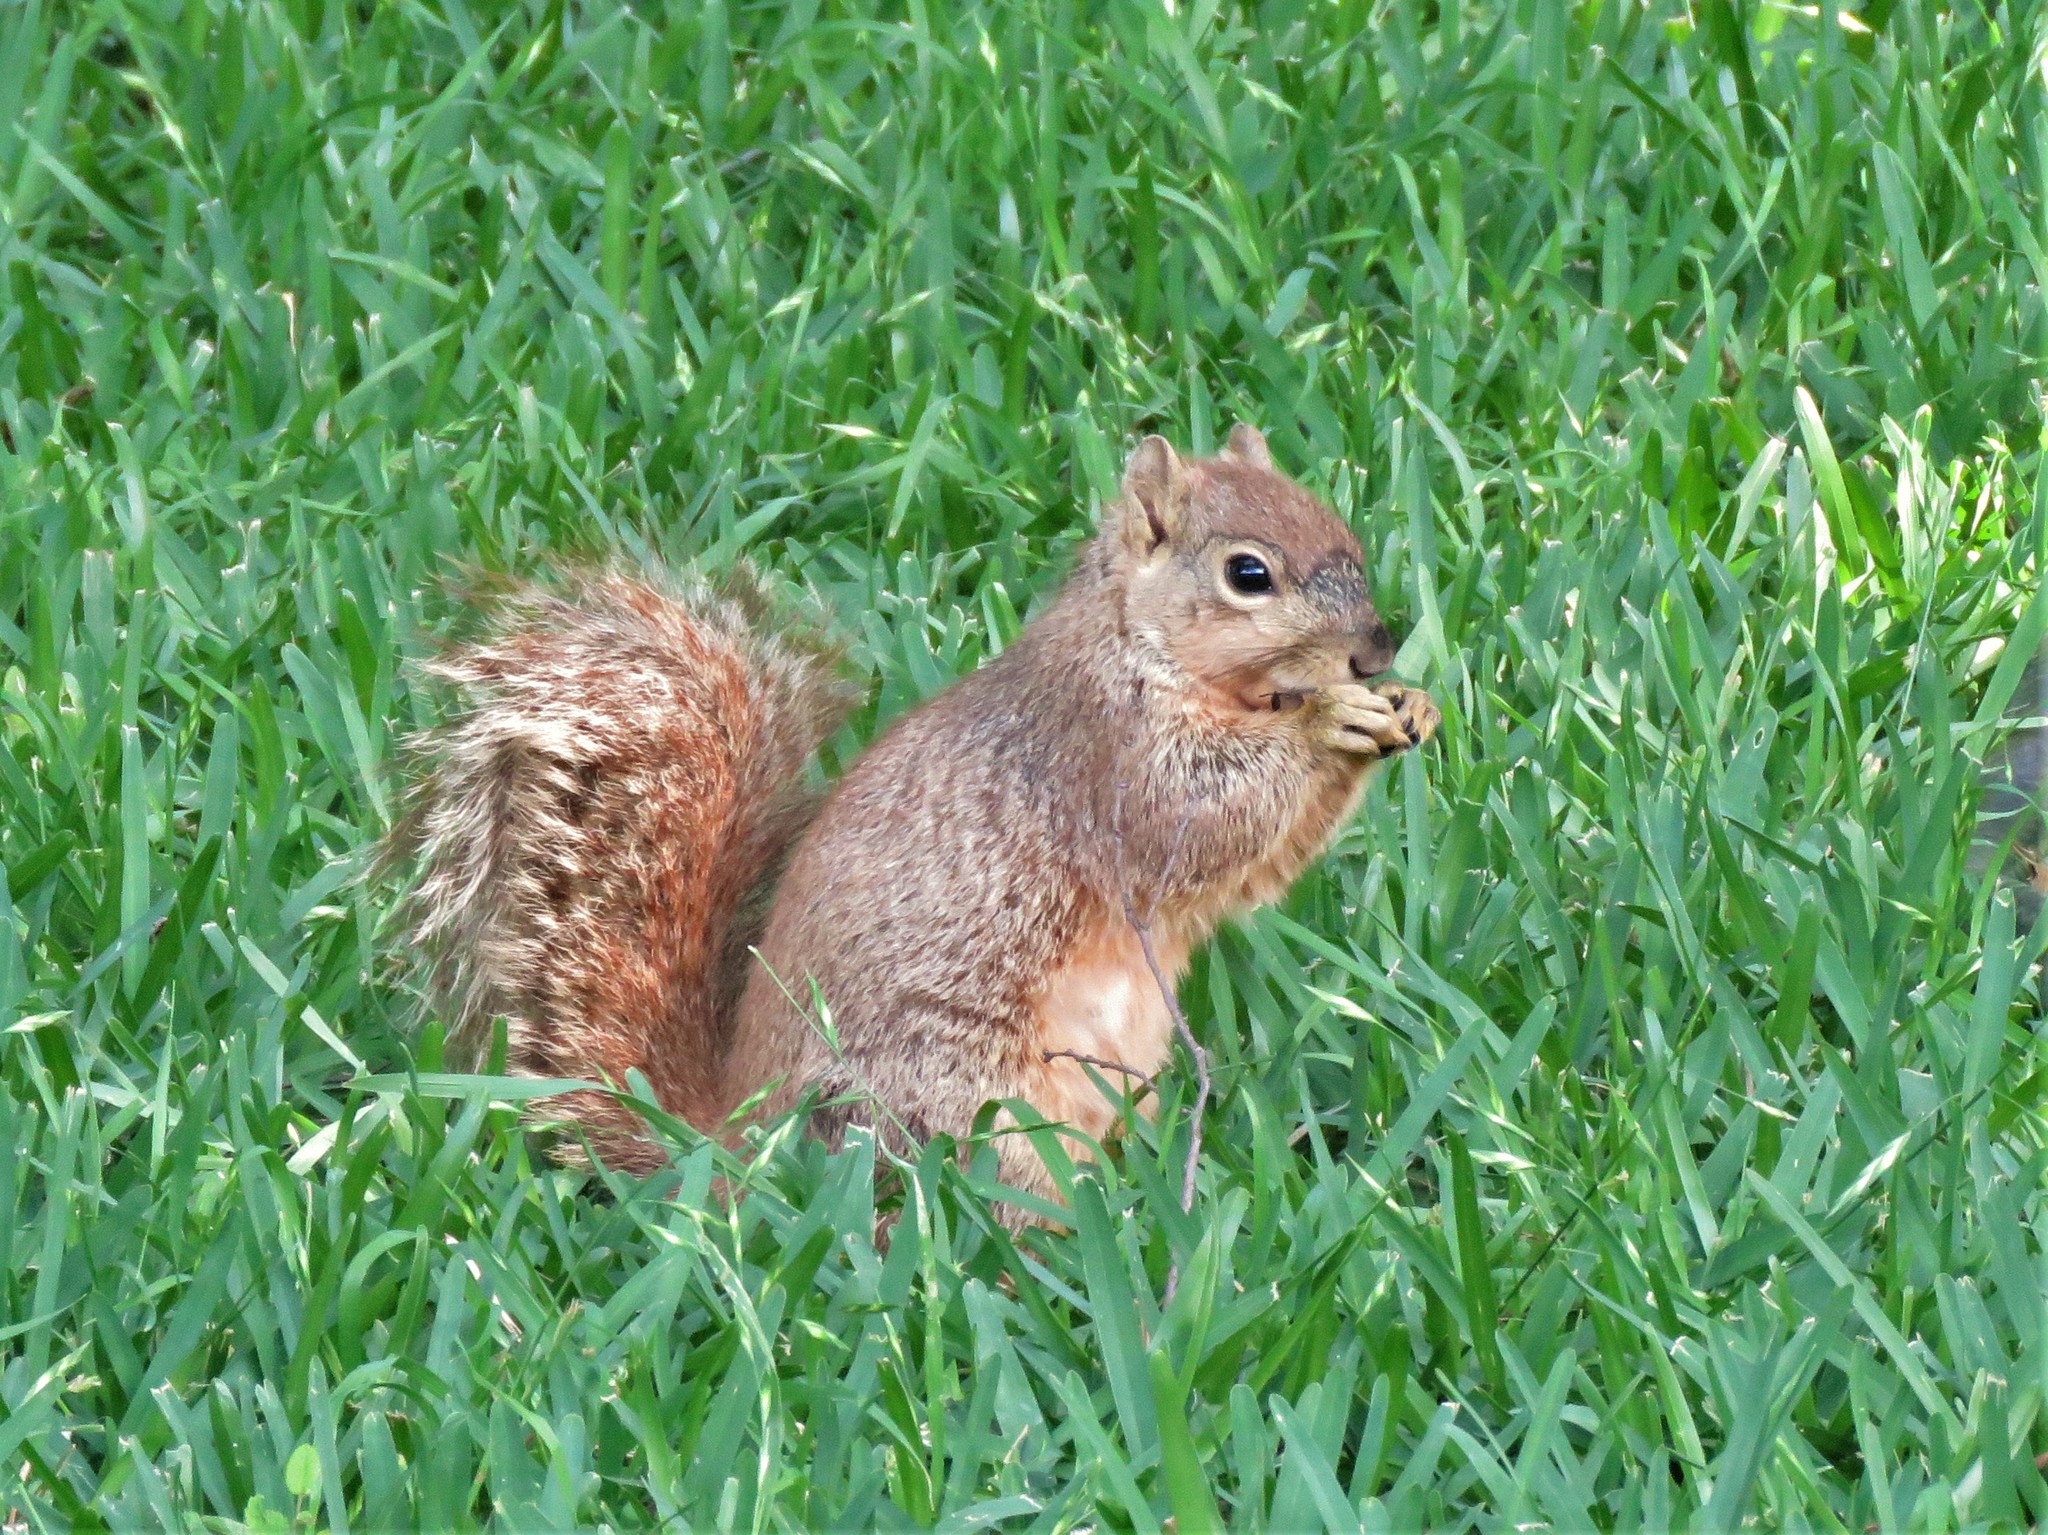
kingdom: Animalia
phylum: Chordata
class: Mammalia
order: Rodentia
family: Sciuridae
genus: Sciurus
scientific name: Sciurus niger
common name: Fox squirrel
